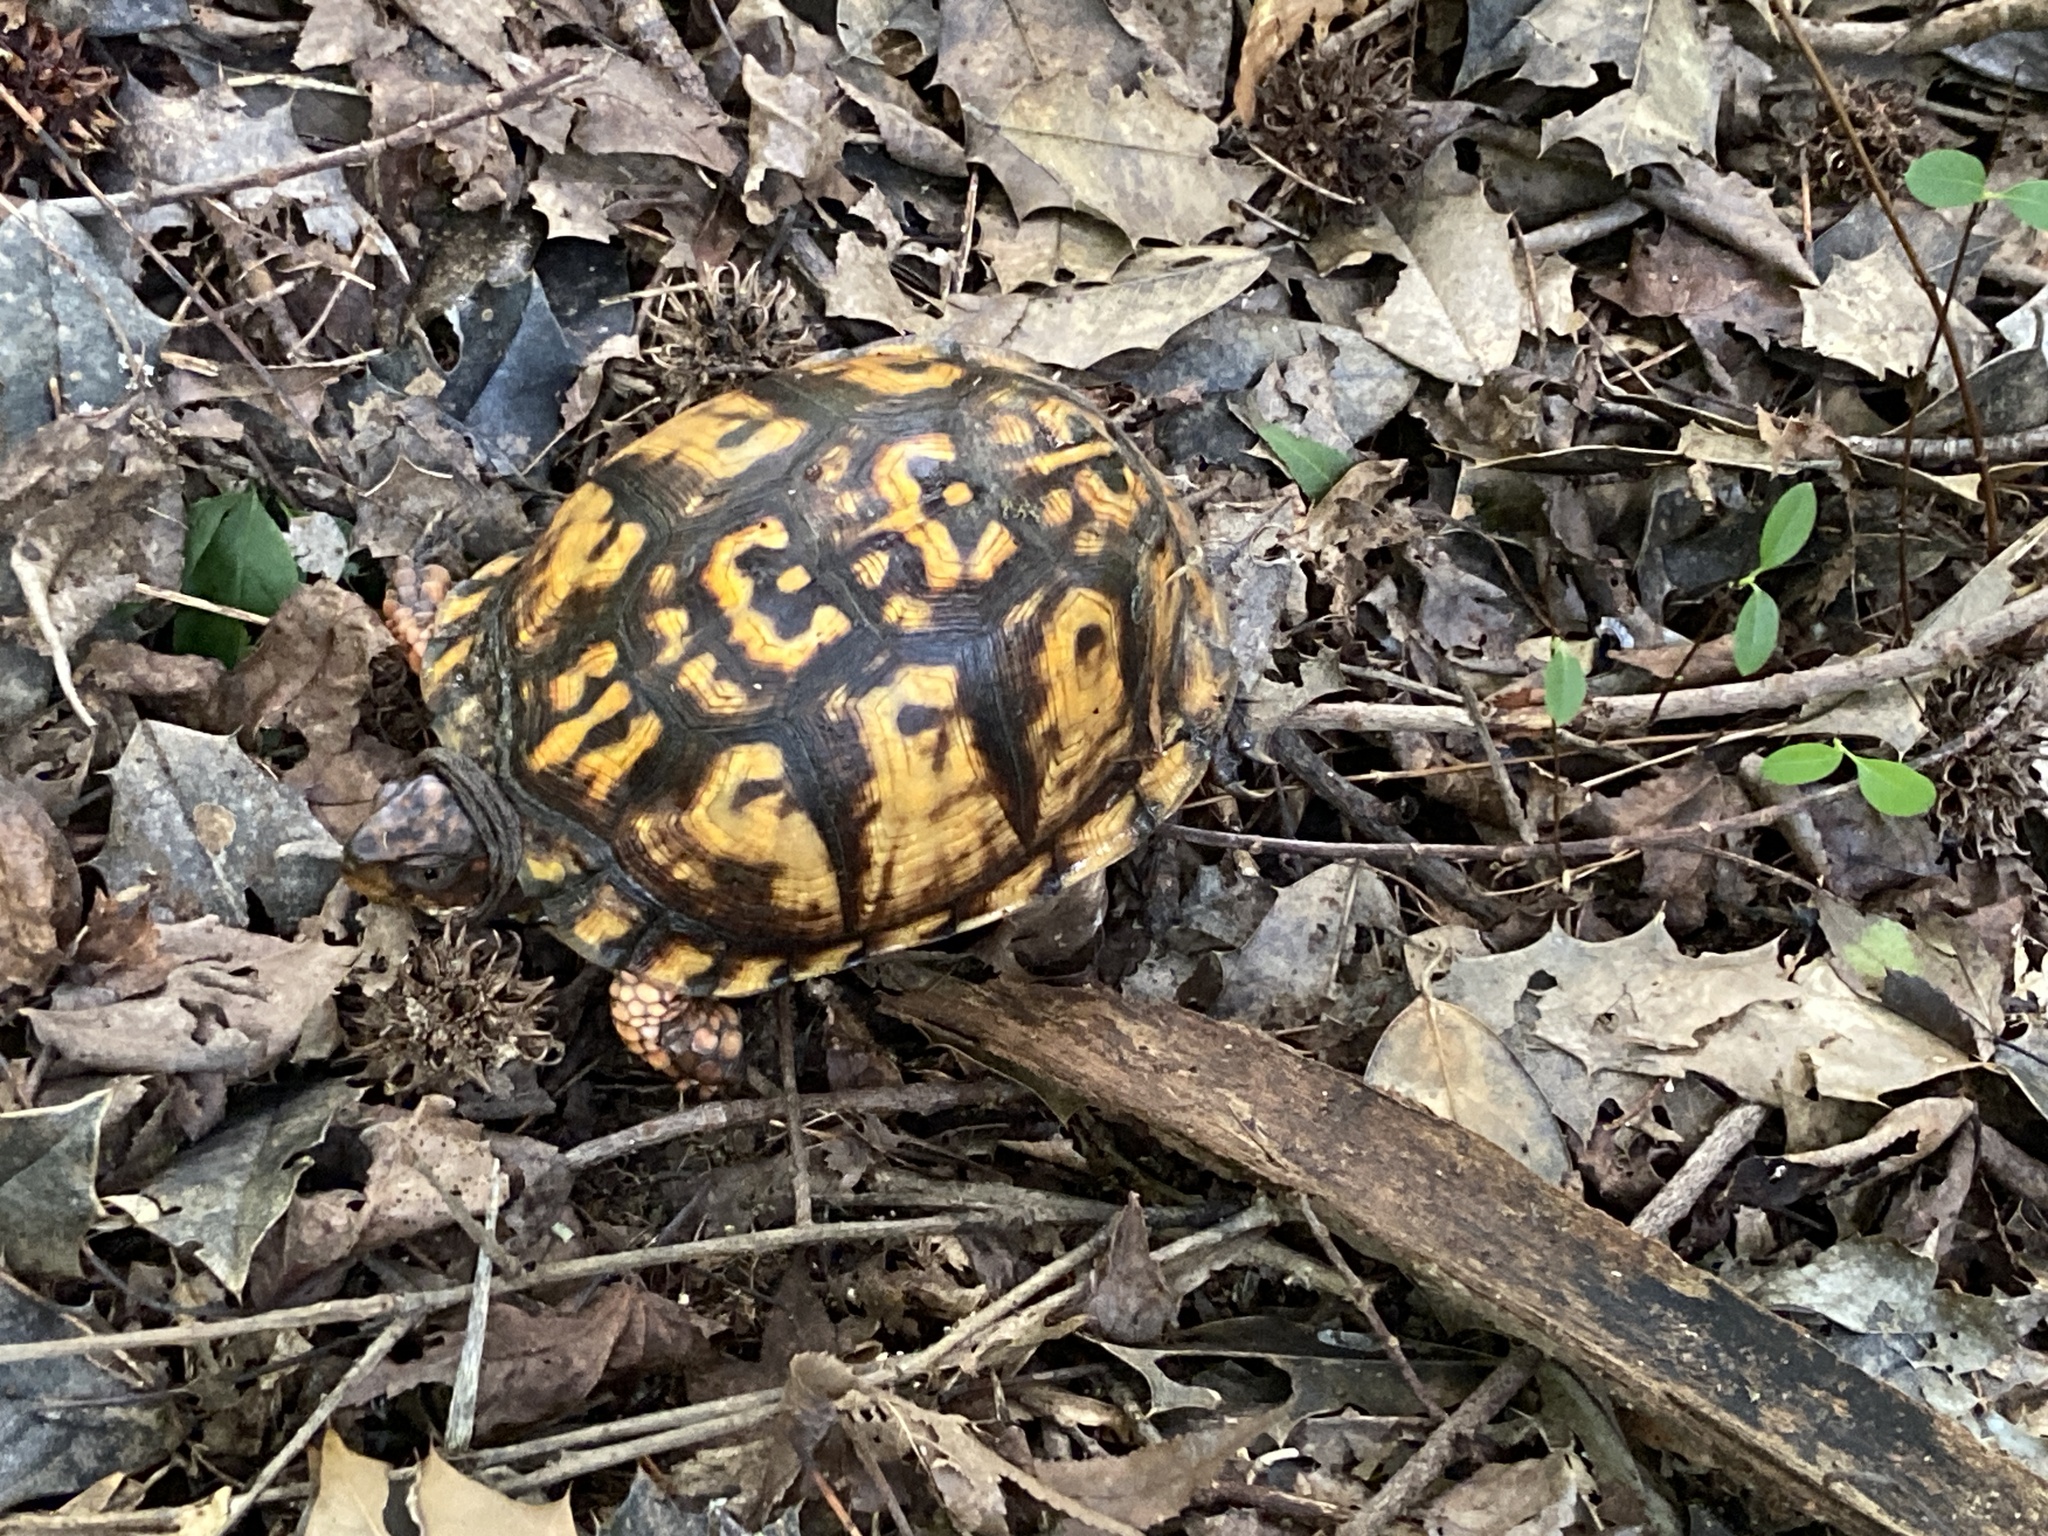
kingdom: Animalia
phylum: Chordata
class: Testudines
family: Emydidae
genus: Terrapene
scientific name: Terrapene carolina
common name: Common box turtle
